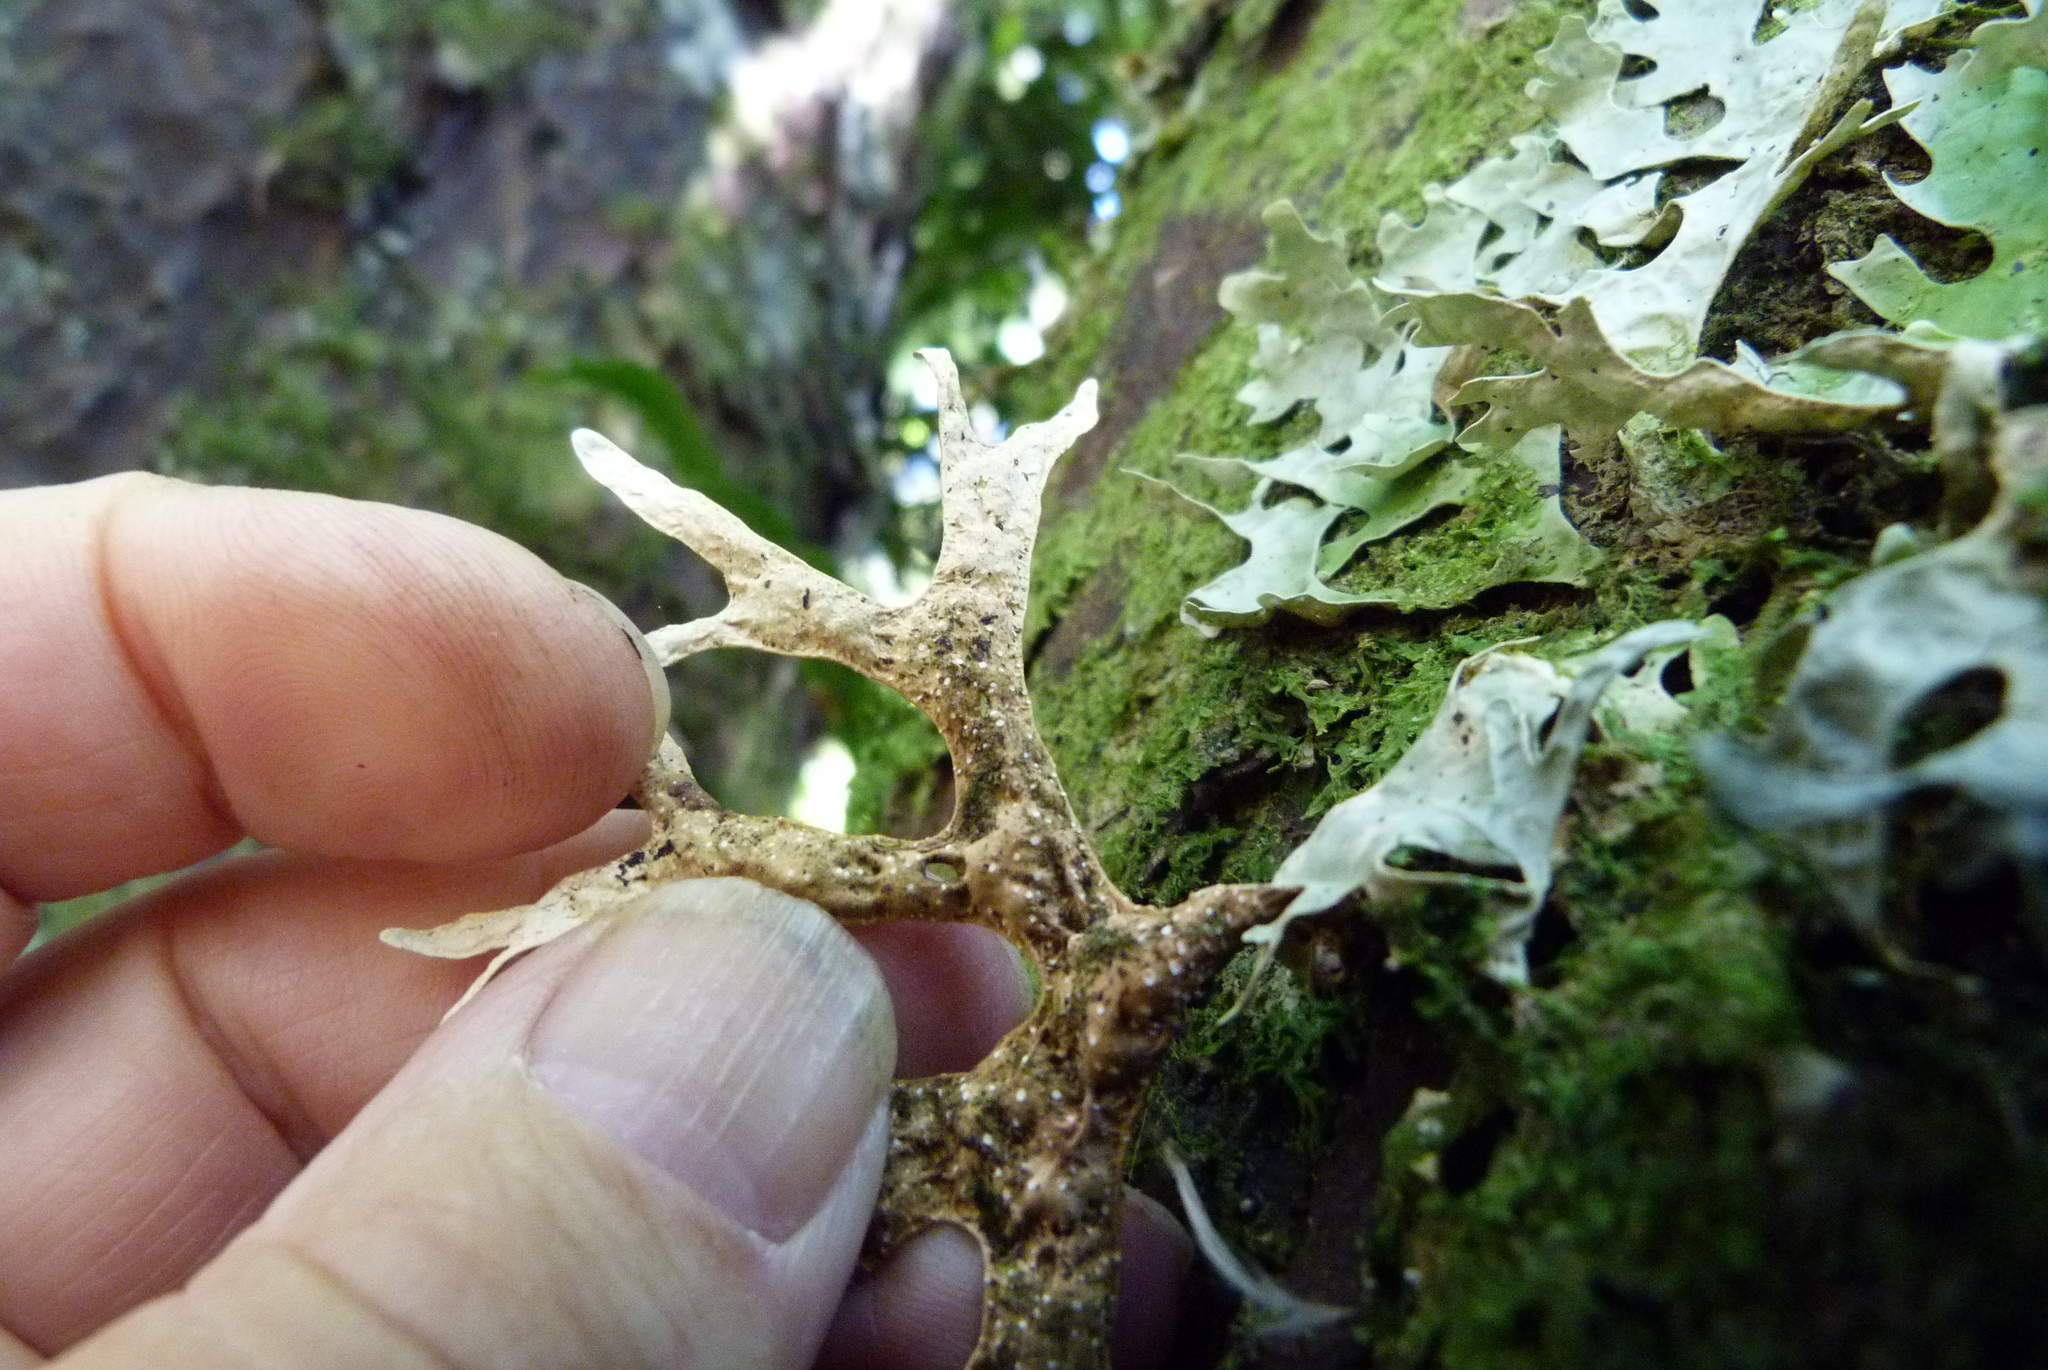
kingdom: Fungi
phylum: Ascomycota
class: Lecanoromycetes
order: Peltigerales
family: Lobariaceae
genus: Pseudocyphellaria
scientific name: Pseudocyphellaria rufovirescens
